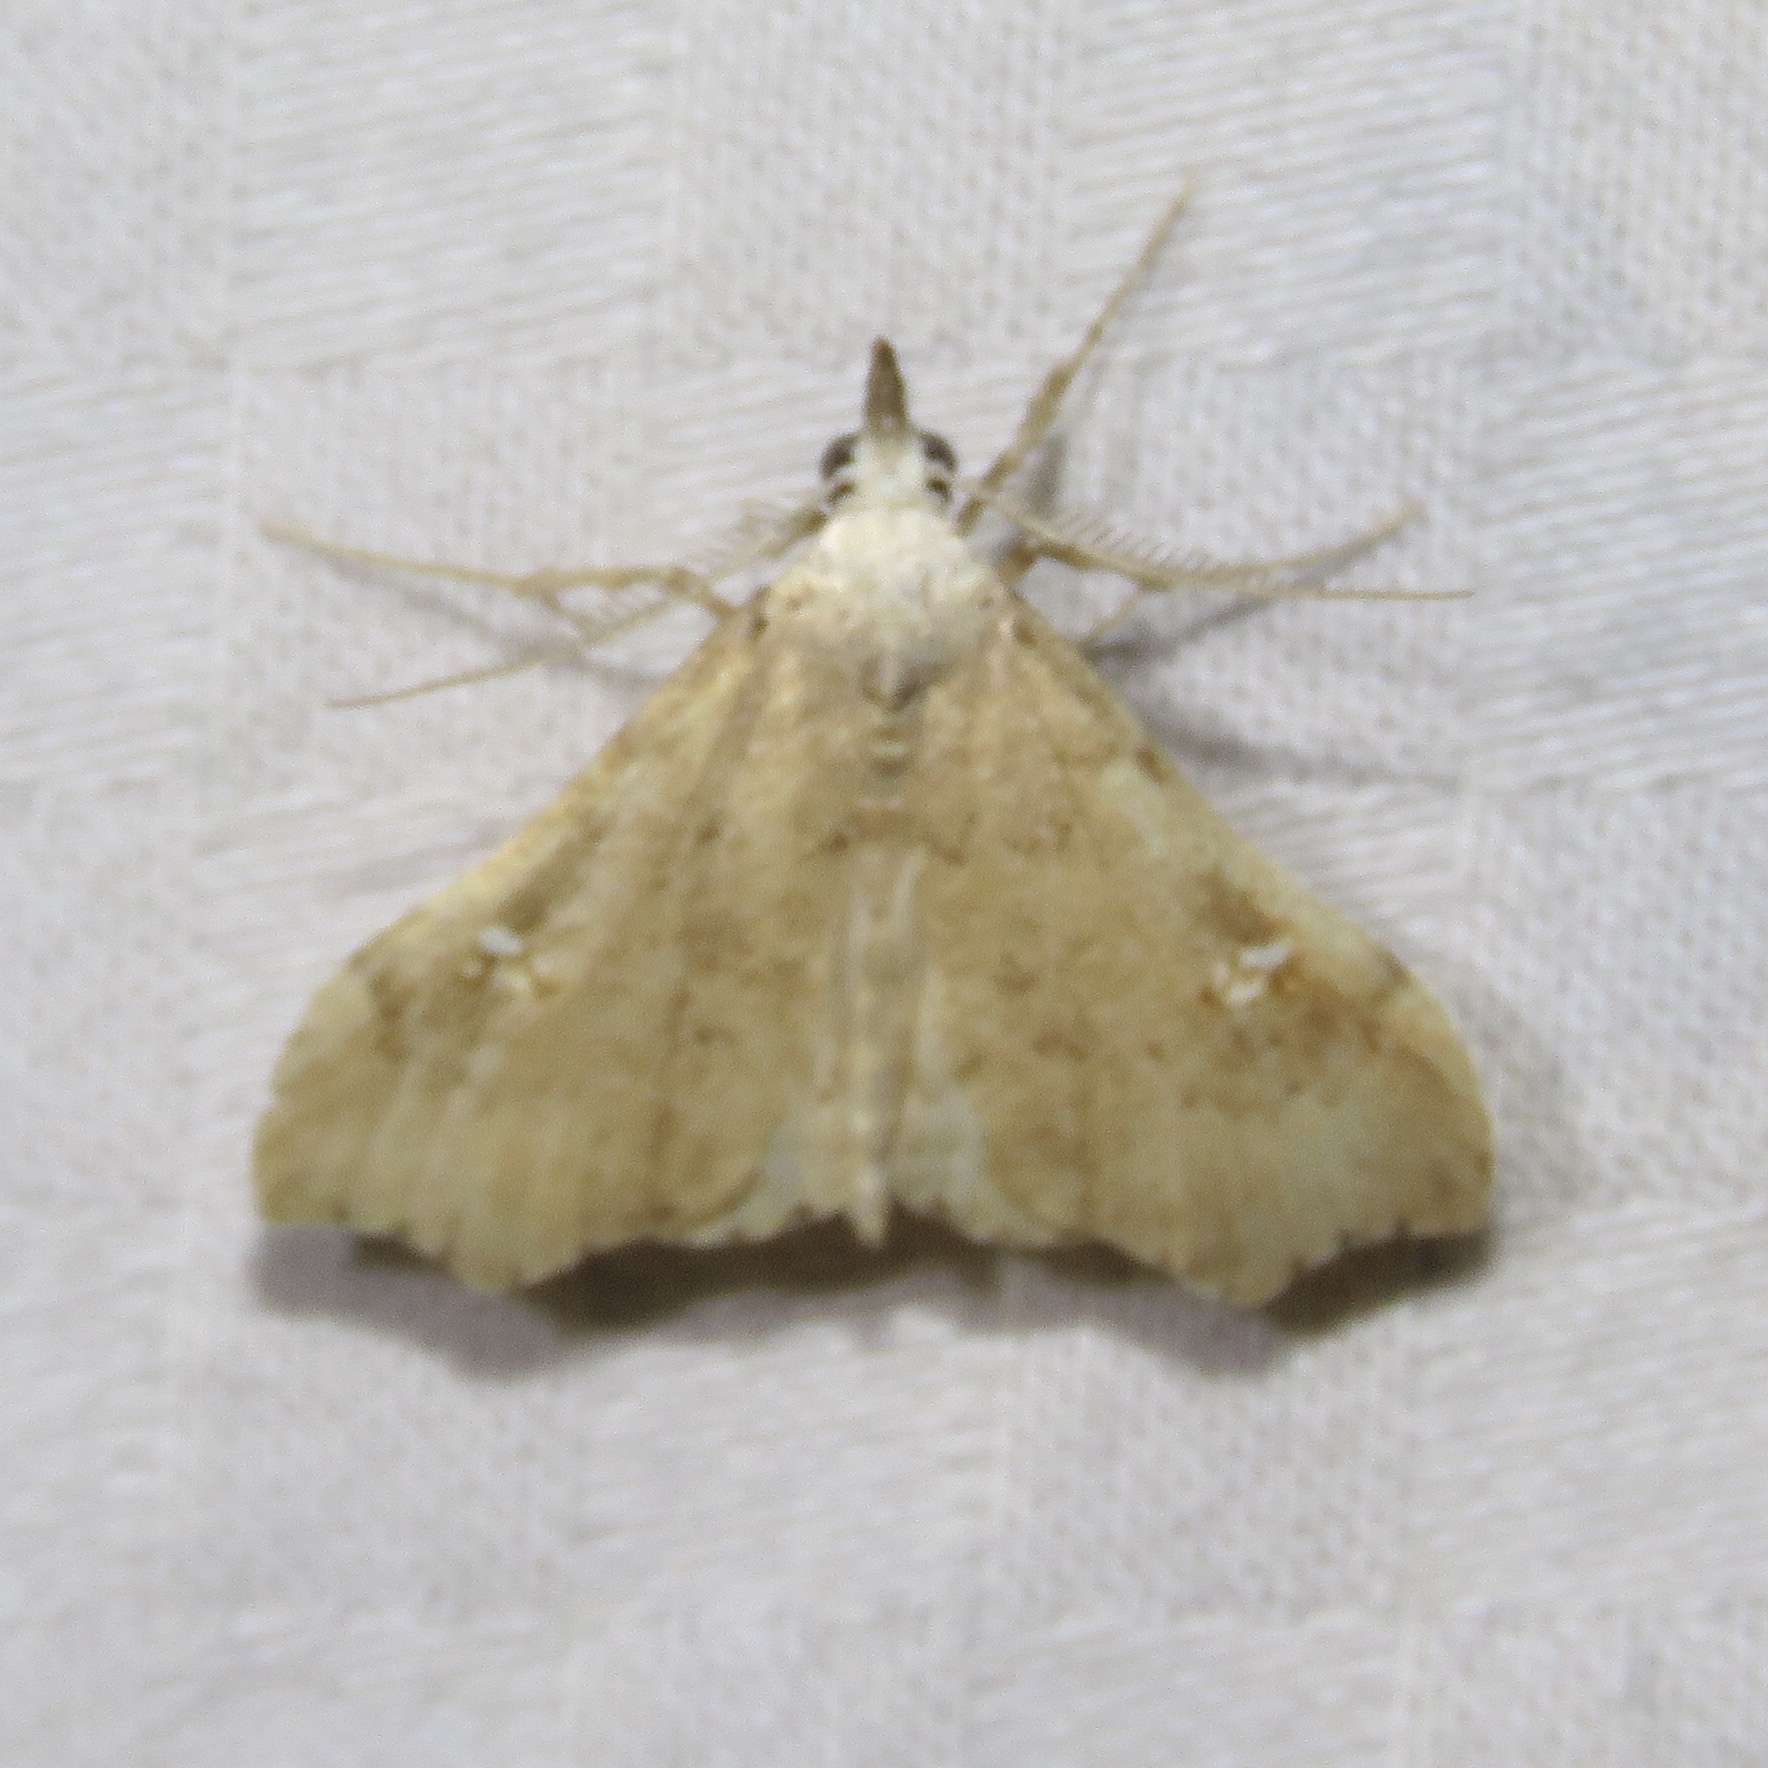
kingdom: Animalia
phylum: Arthropoda
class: Insecta
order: Lepidoptera
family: Erebidae
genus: Redectis
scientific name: Redectis vitrea
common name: White-spotted redectis
